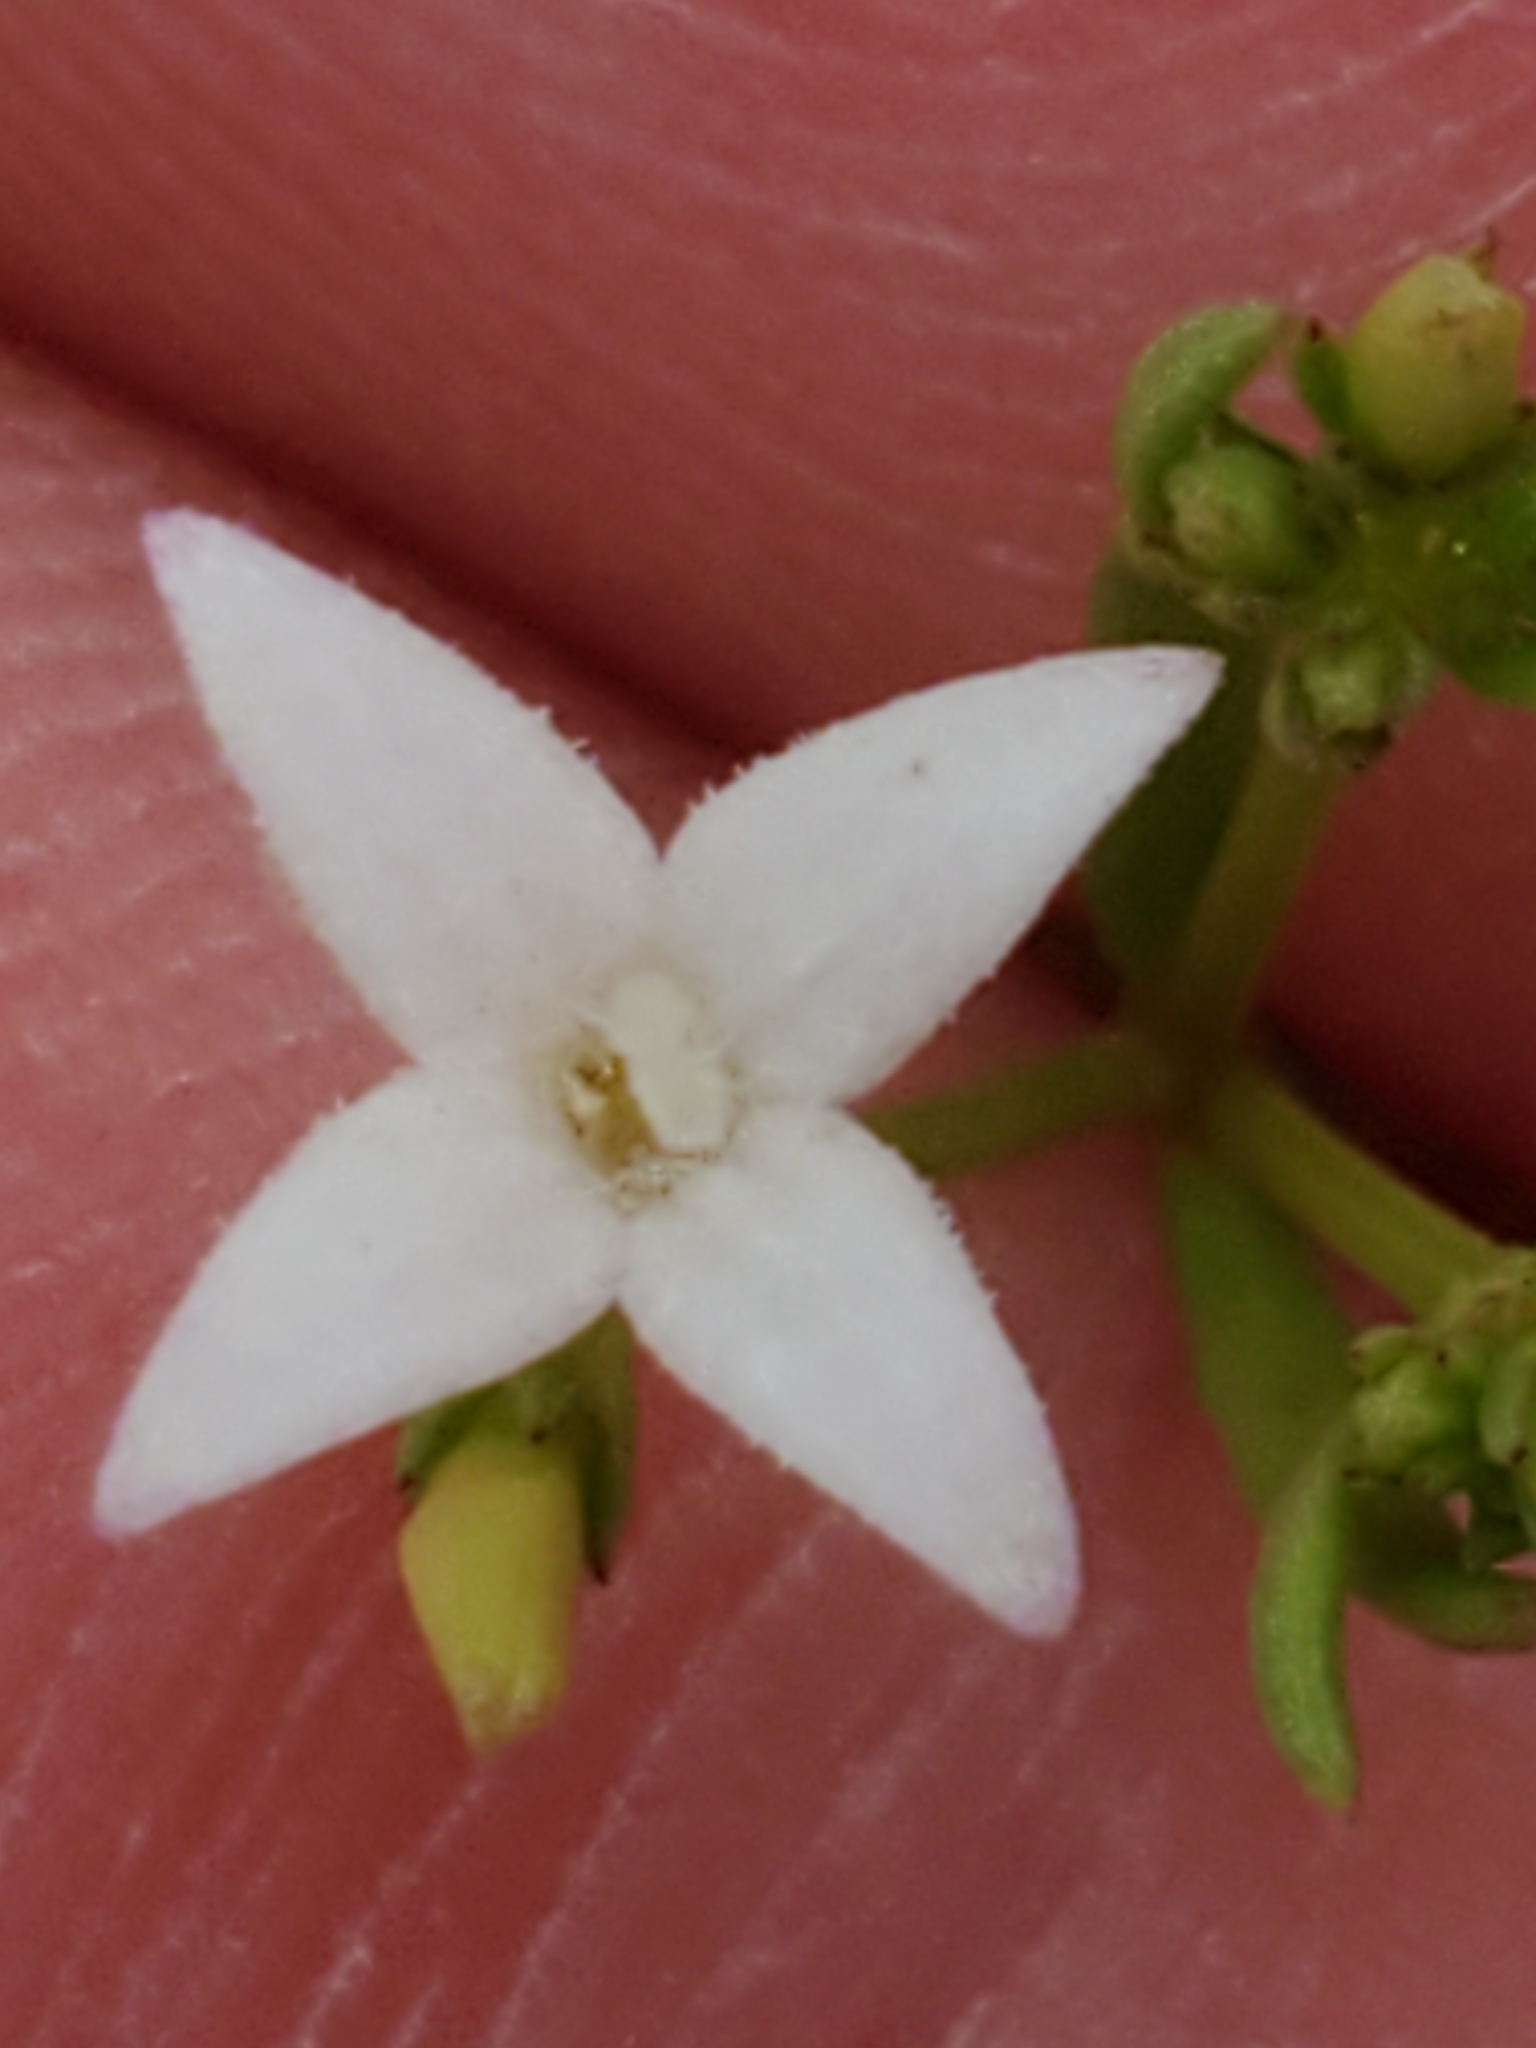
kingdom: Plantae
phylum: Tracheophyta
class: Magnoliopsida
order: Gentianales
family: Rubiaceae
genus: Stenaria
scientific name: Stenaria nigricans
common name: Diamondflowers
